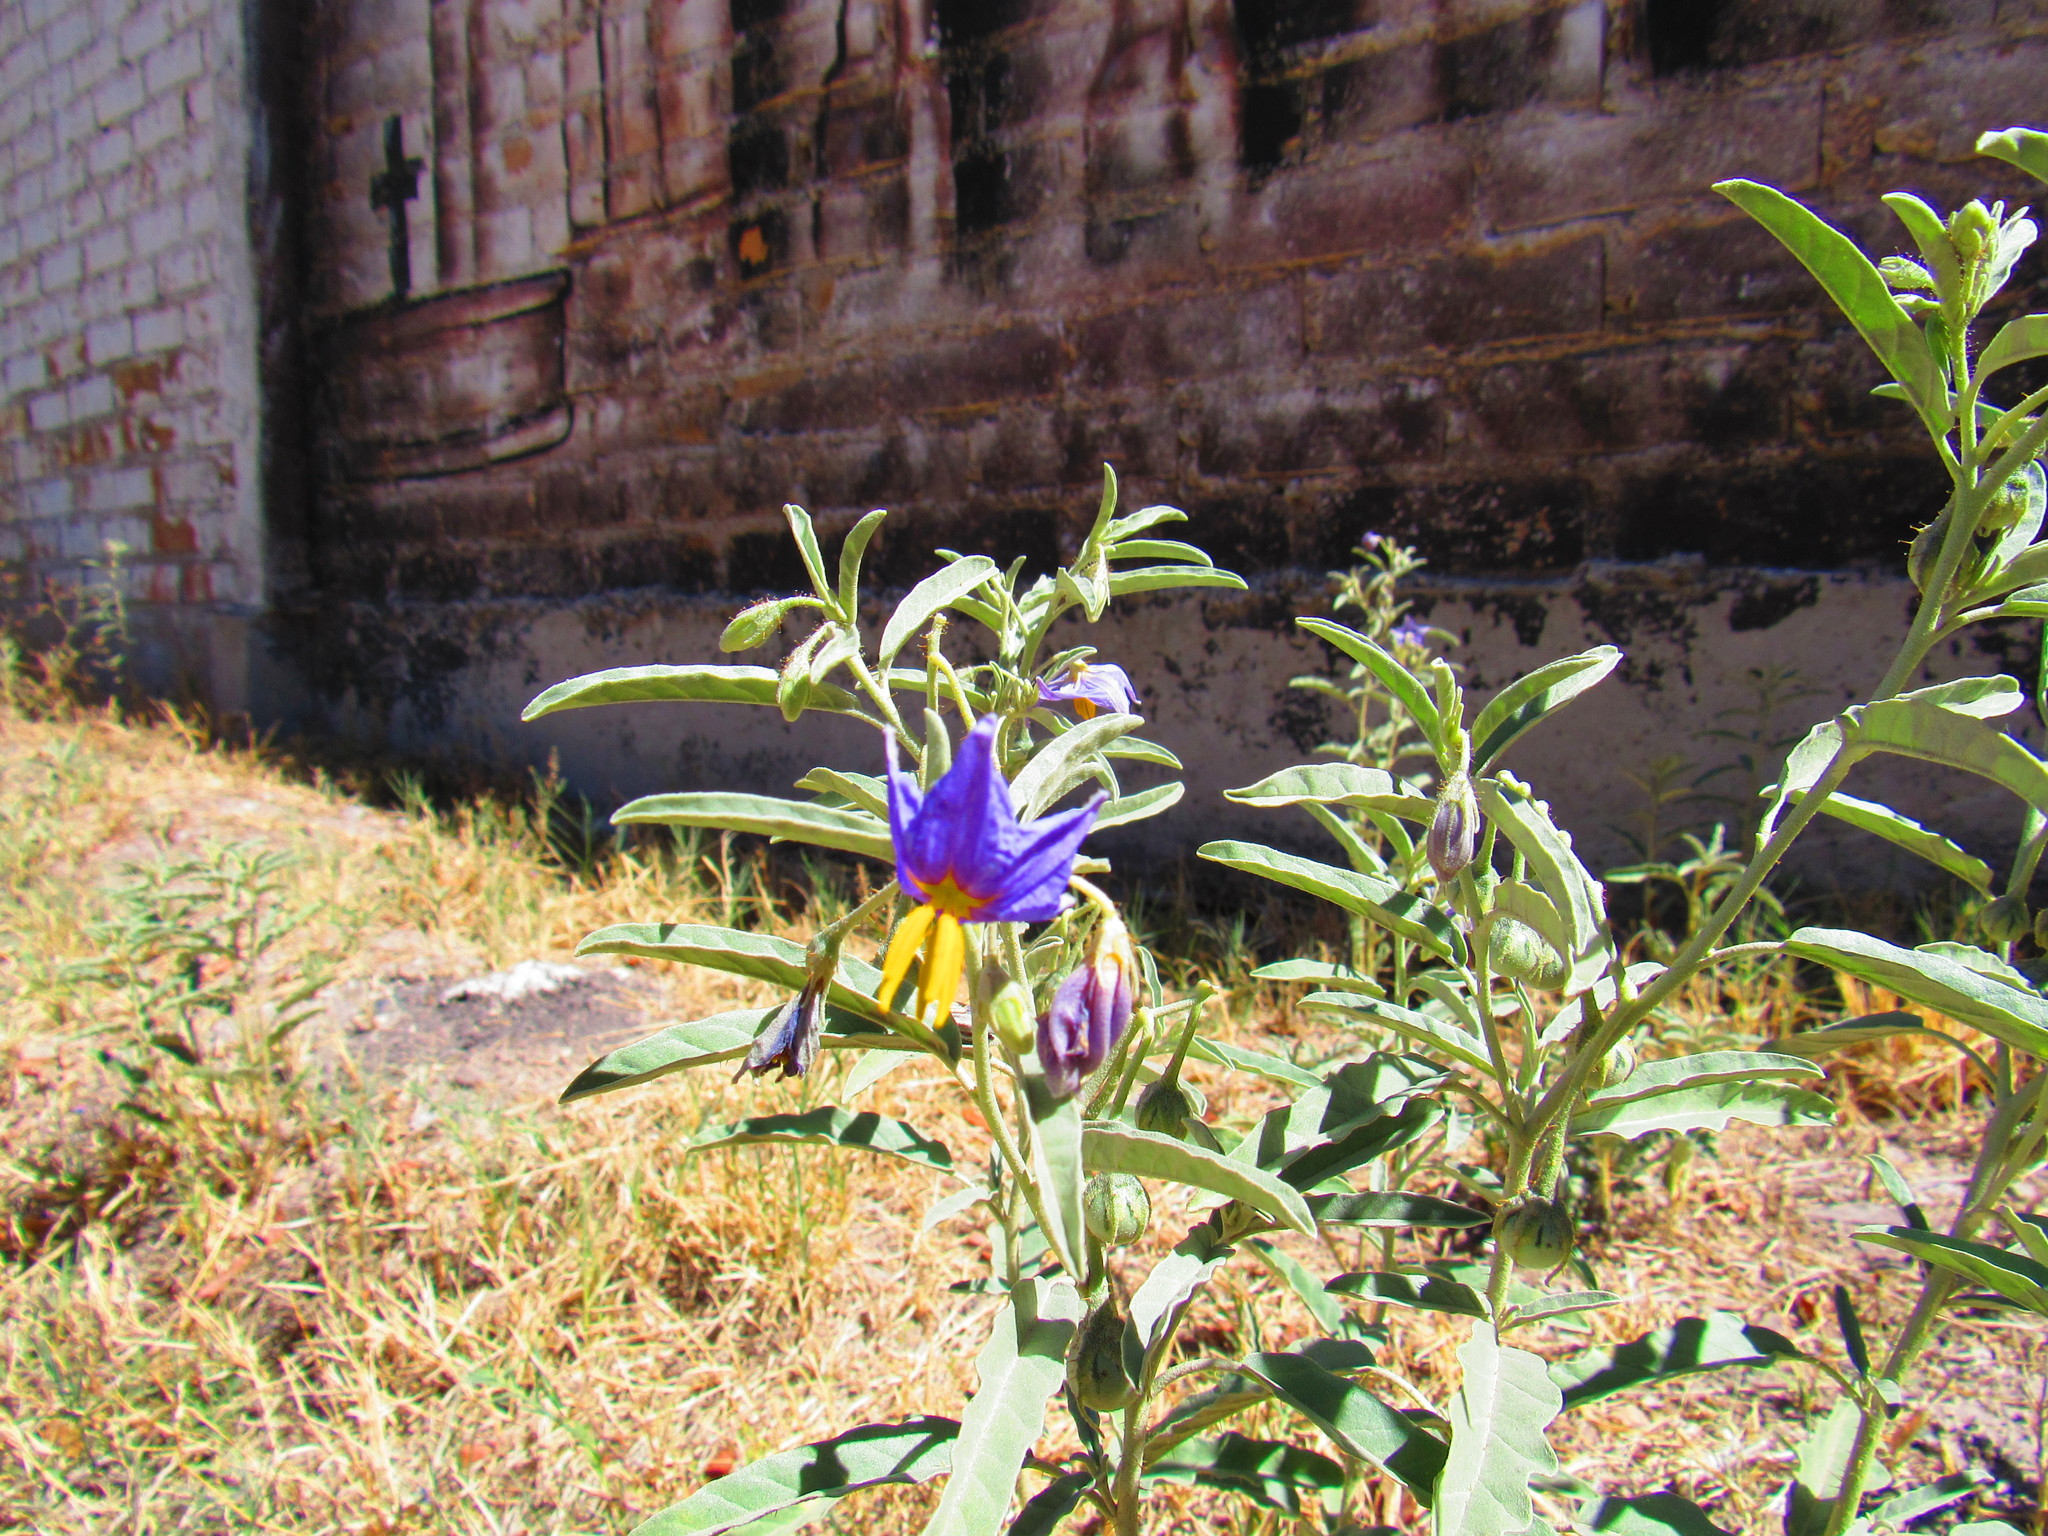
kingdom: Plantae
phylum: Tracheophyta
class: Magnoliopsida
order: Solanales
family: Solanaceae
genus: Solanum
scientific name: Solanum elaeagnifolium
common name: Silverleaf nightshade
